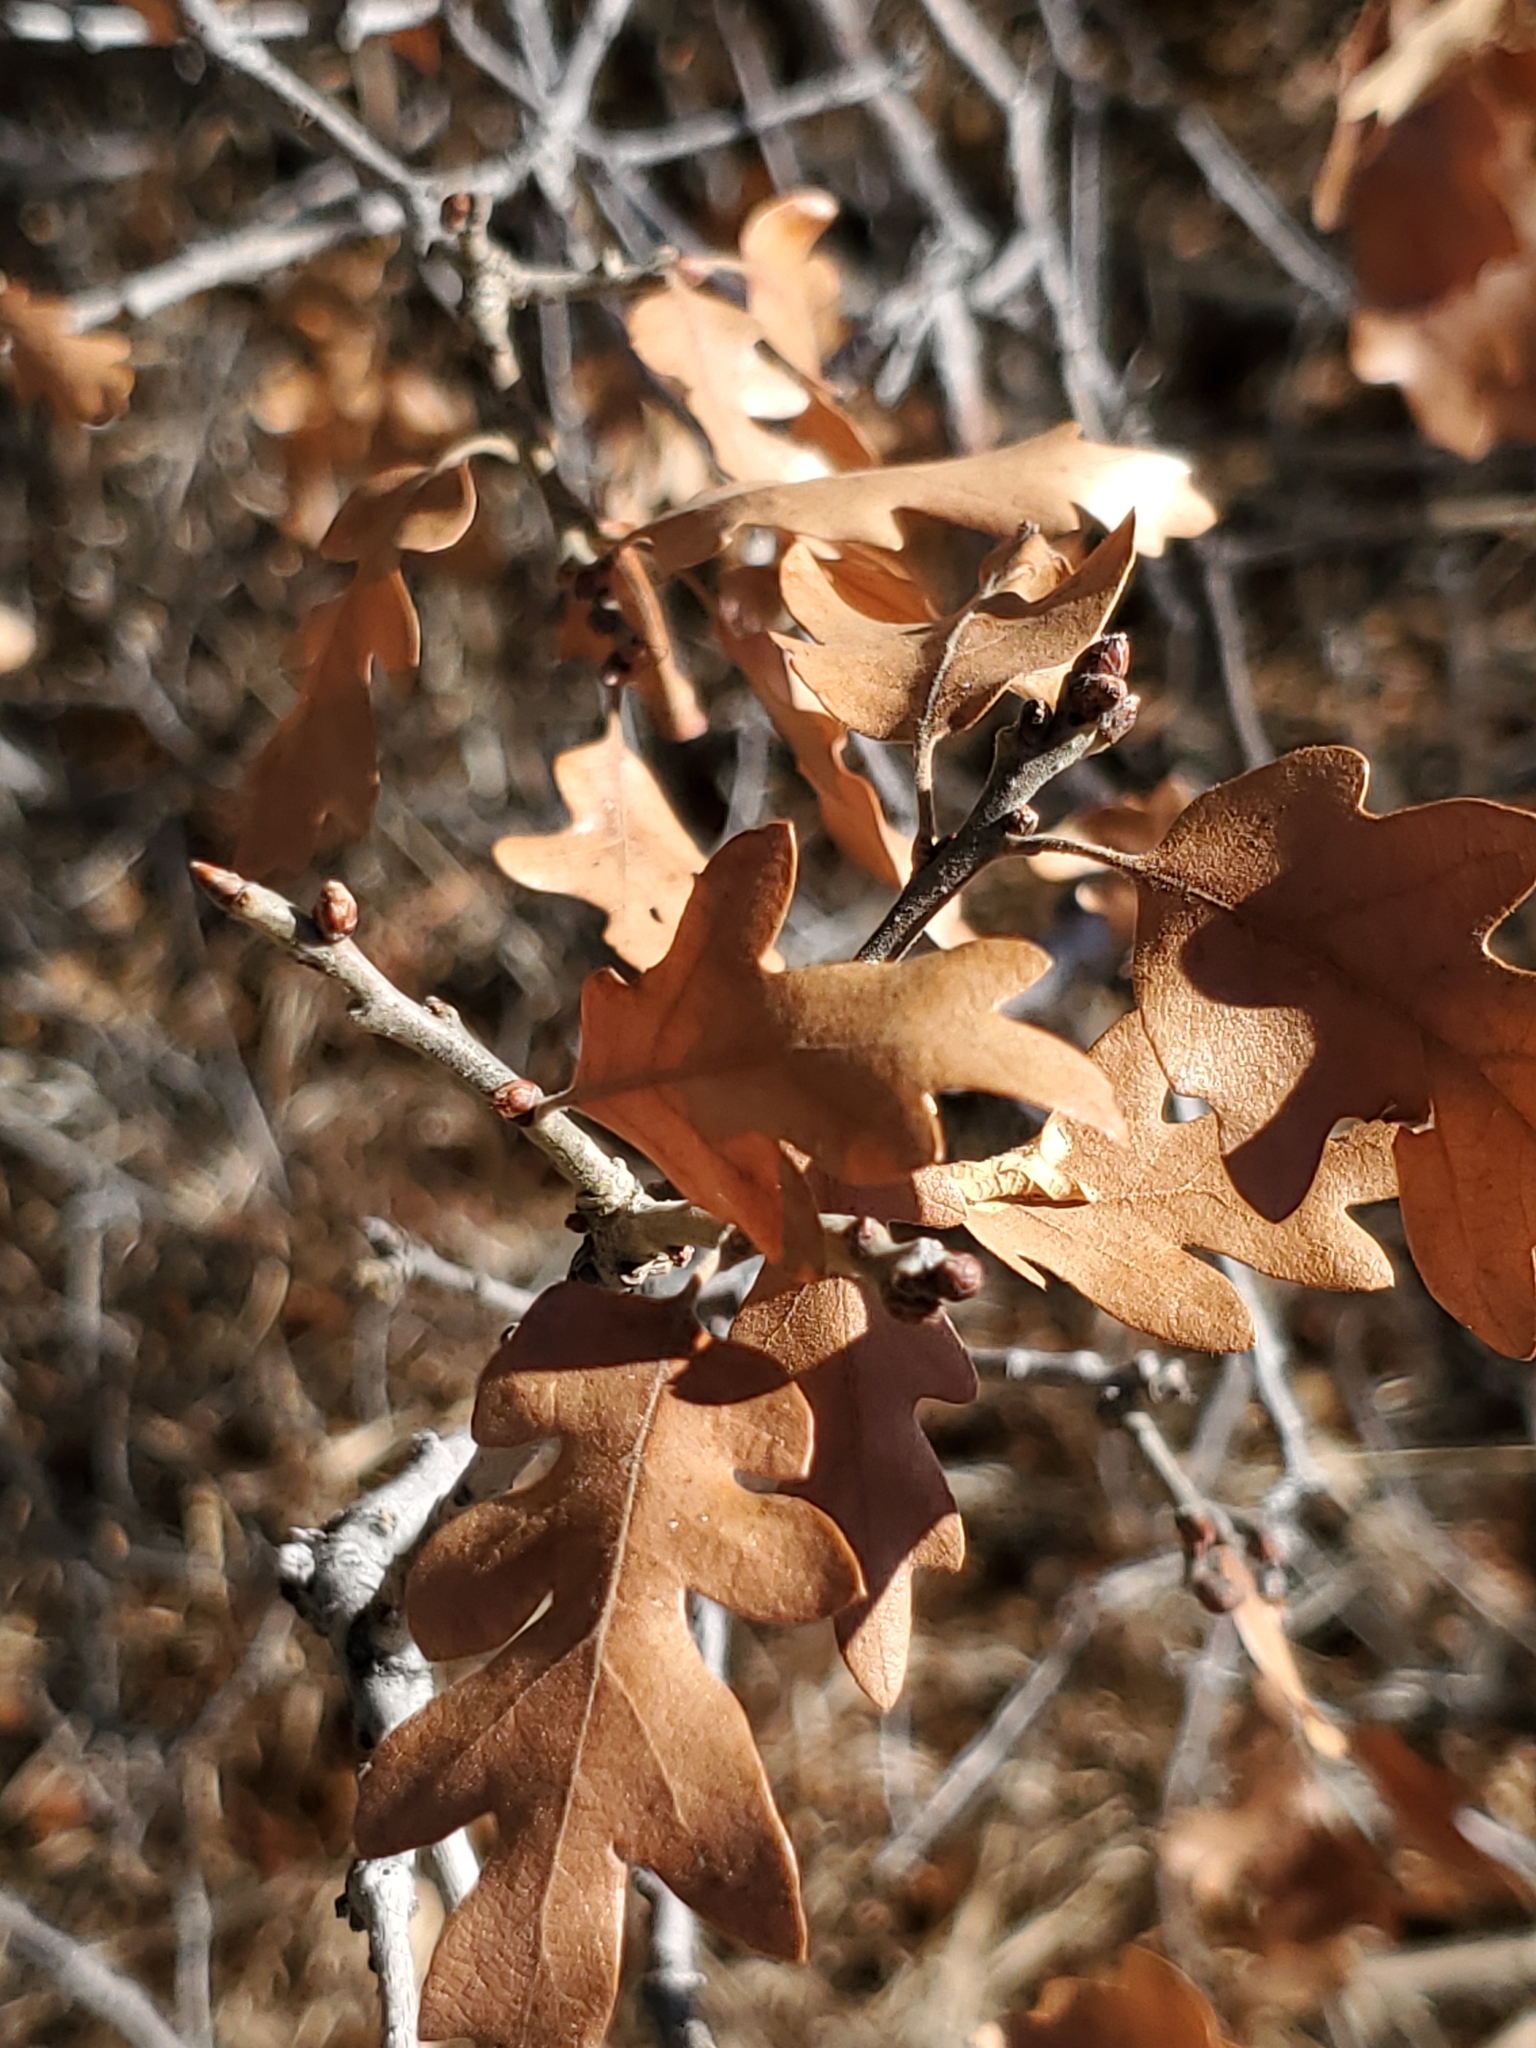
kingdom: Plantae
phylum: Tracheophyta
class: Magnoliopsida
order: Fagales
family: Fagaceae
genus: Quercus
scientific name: Quercus gambelii
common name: Gambel oak
